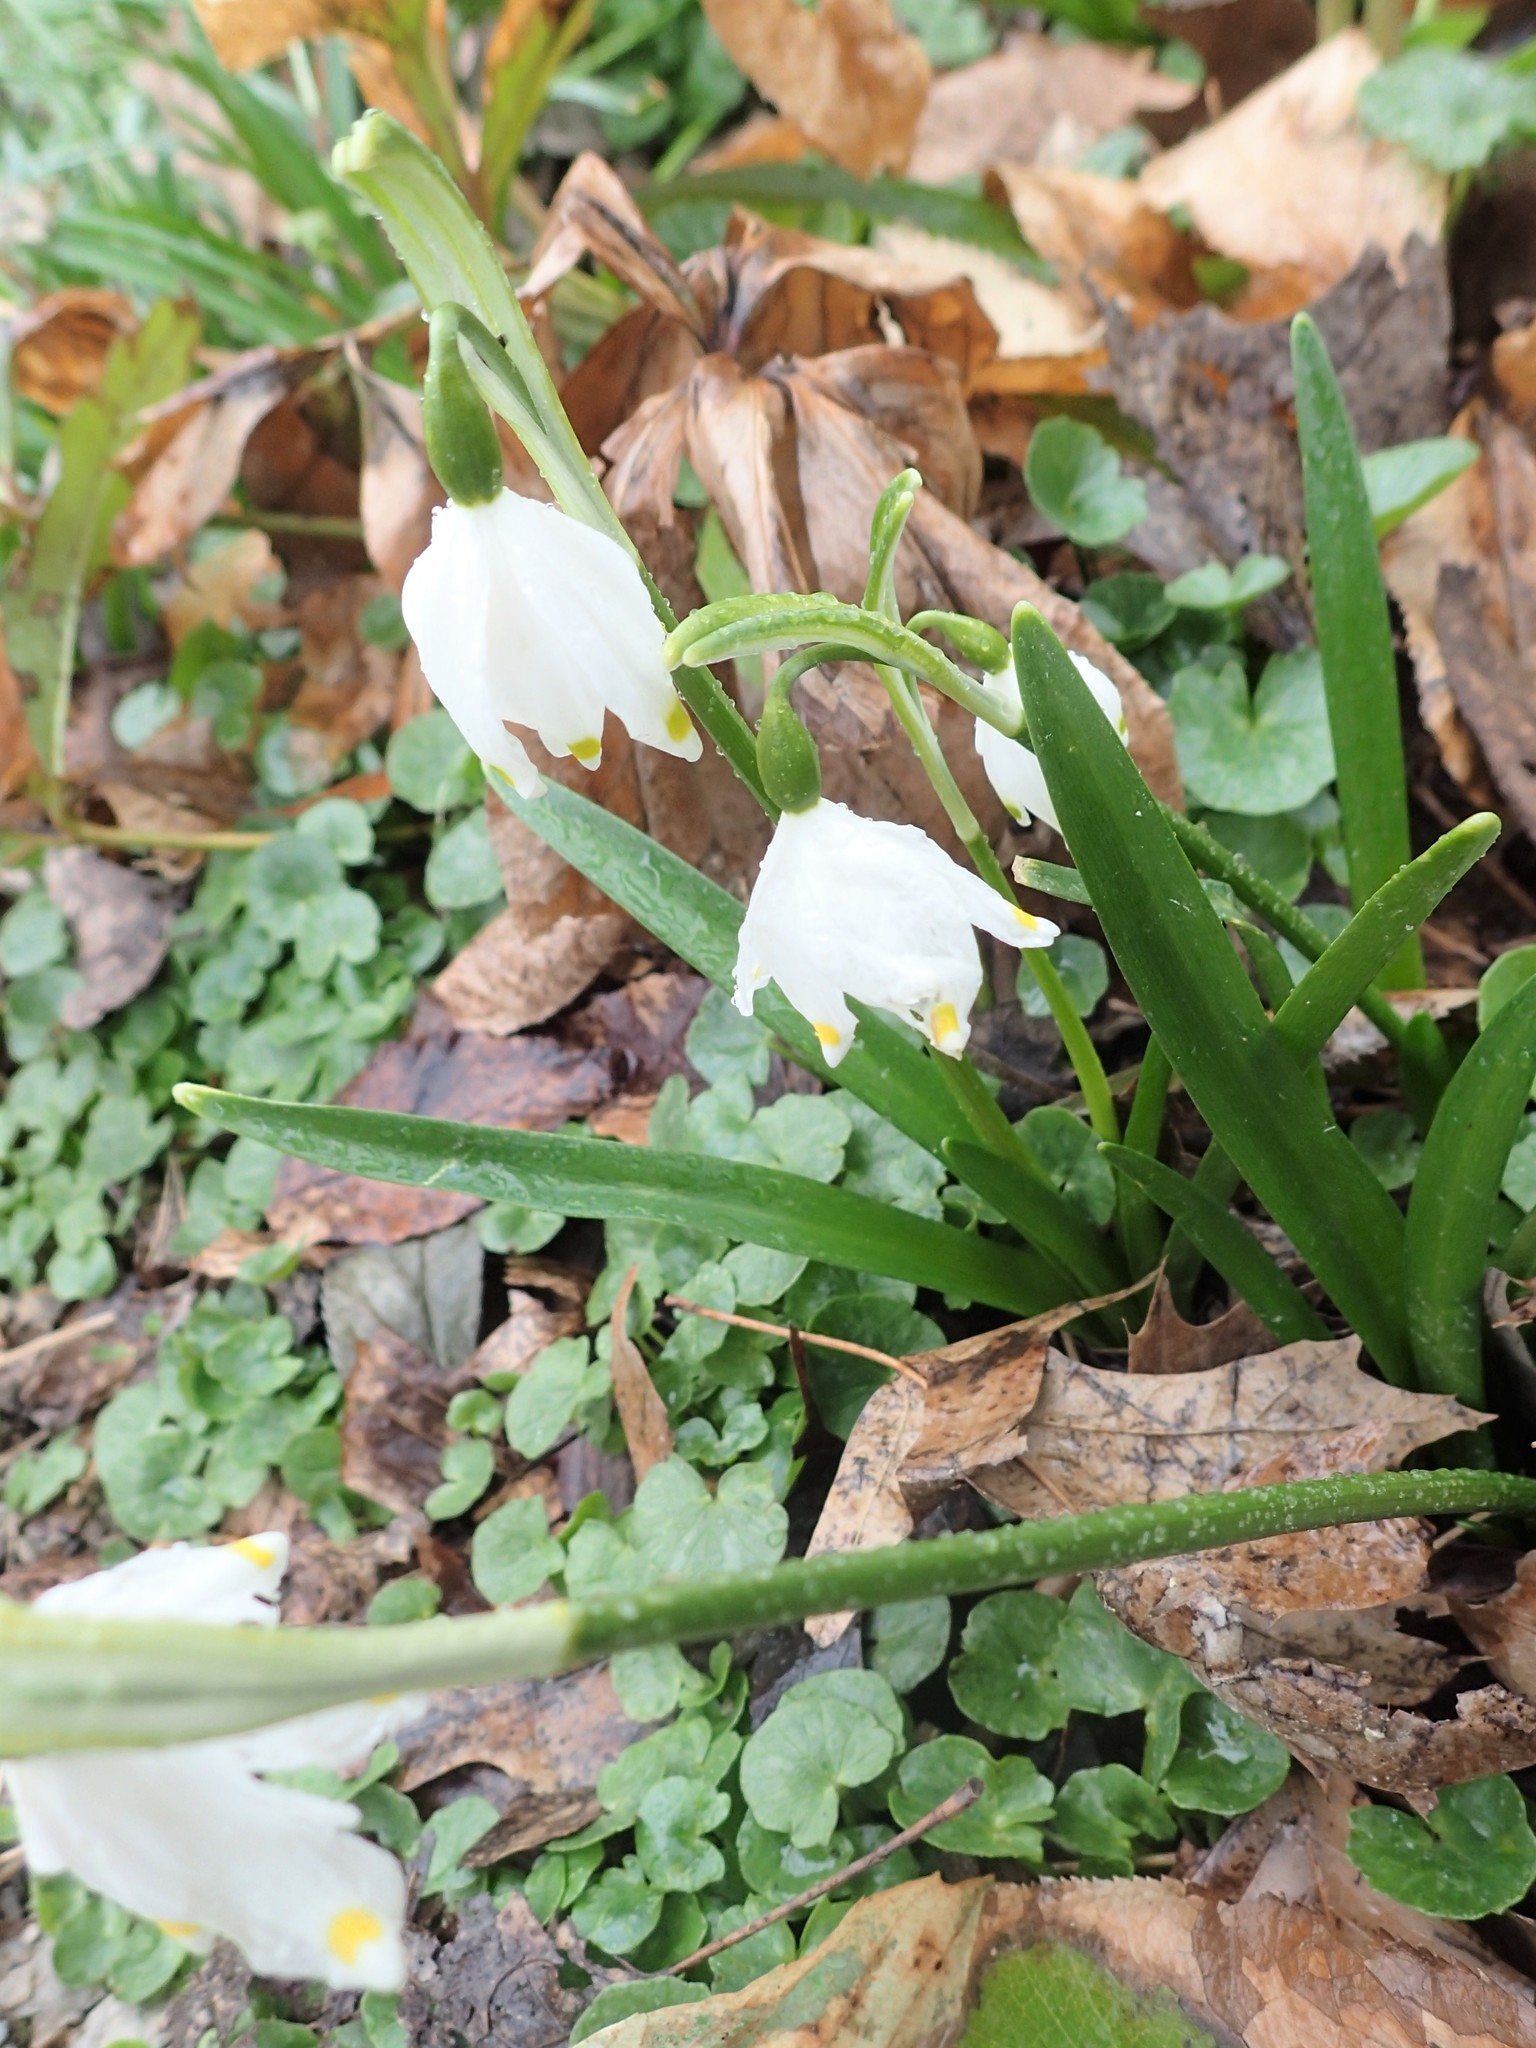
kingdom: Plantae
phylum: Tracheophyta
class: Liliopsida
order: Asparagales
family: Amaryllidaceae
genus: Leucojum
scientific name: Leucojum vernum
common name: Spring snowflake
